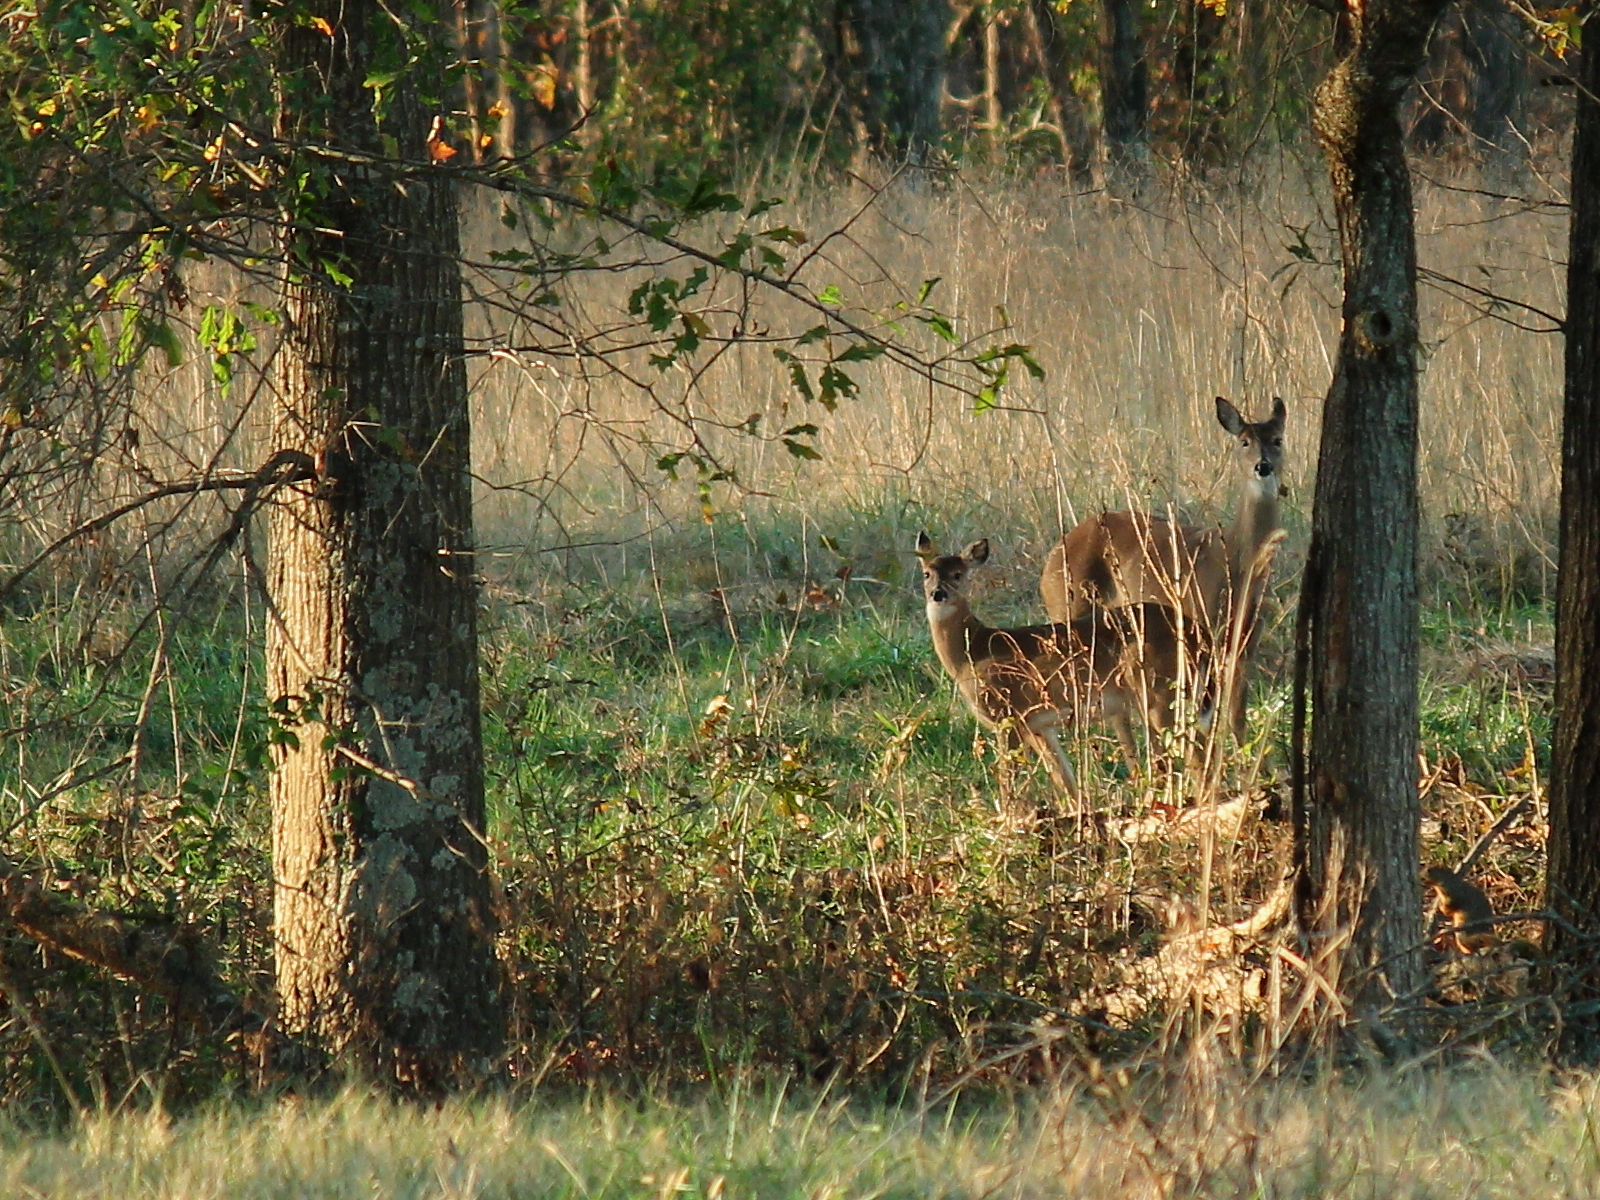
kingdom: Animalia
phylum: Chordata
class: Mammalia
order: Artiodactyla
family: Cervidae
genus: Odocoileus
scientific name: Odocoileus virginianus
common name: White-tailed deer
